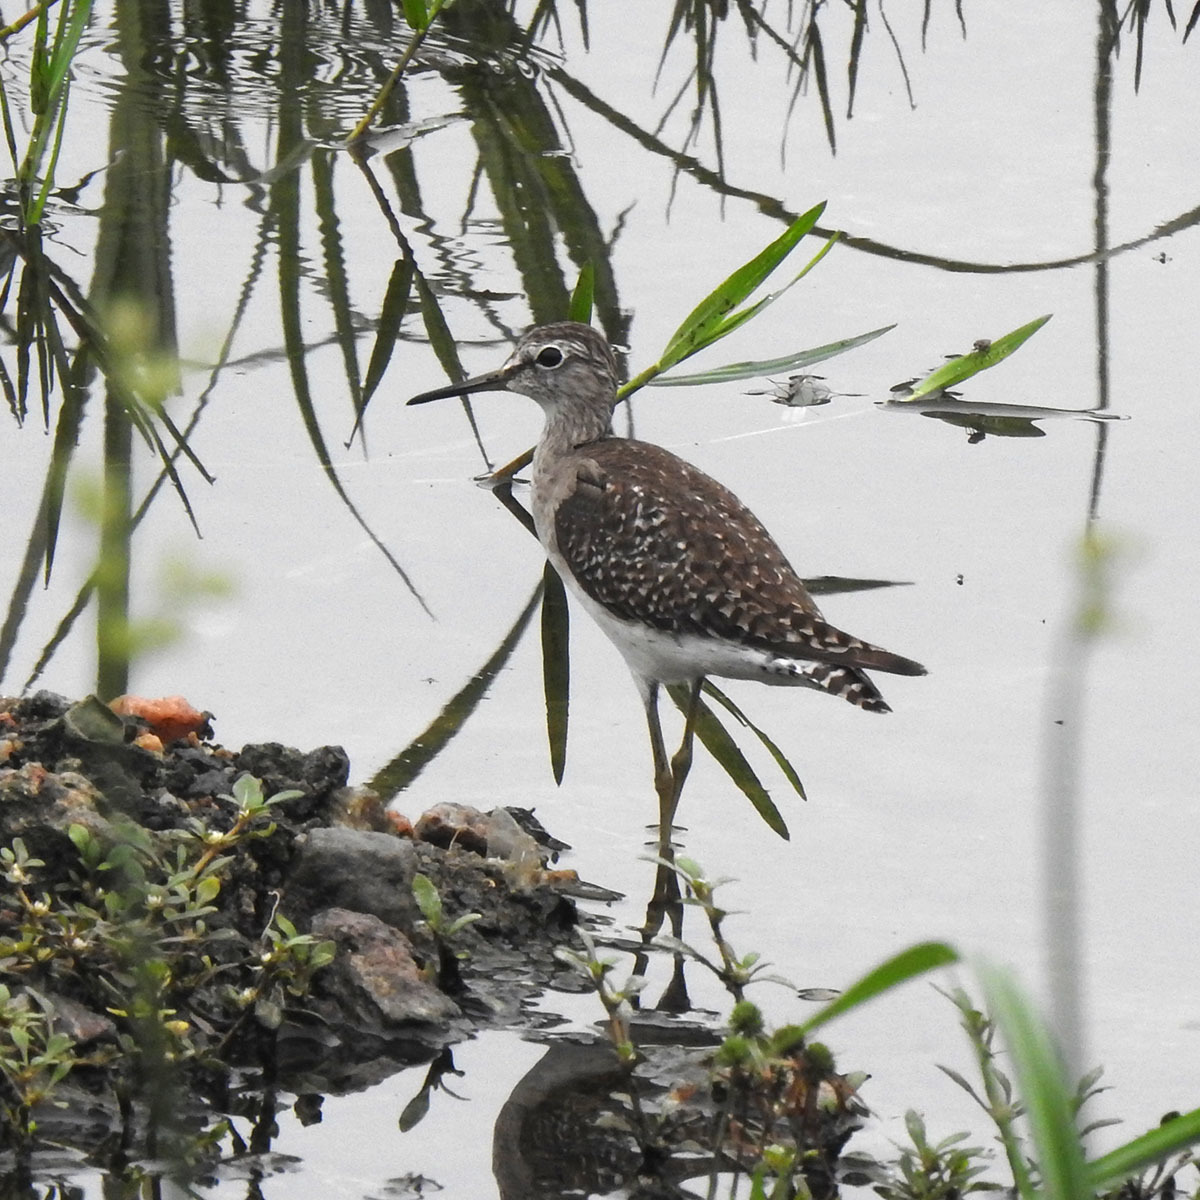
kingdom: Animalia
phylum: Chordata
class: Aves
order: Charadriiformes
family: Scolopacidae
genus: Tringa
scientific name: Tringa glareola
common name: Wood sandpiper
